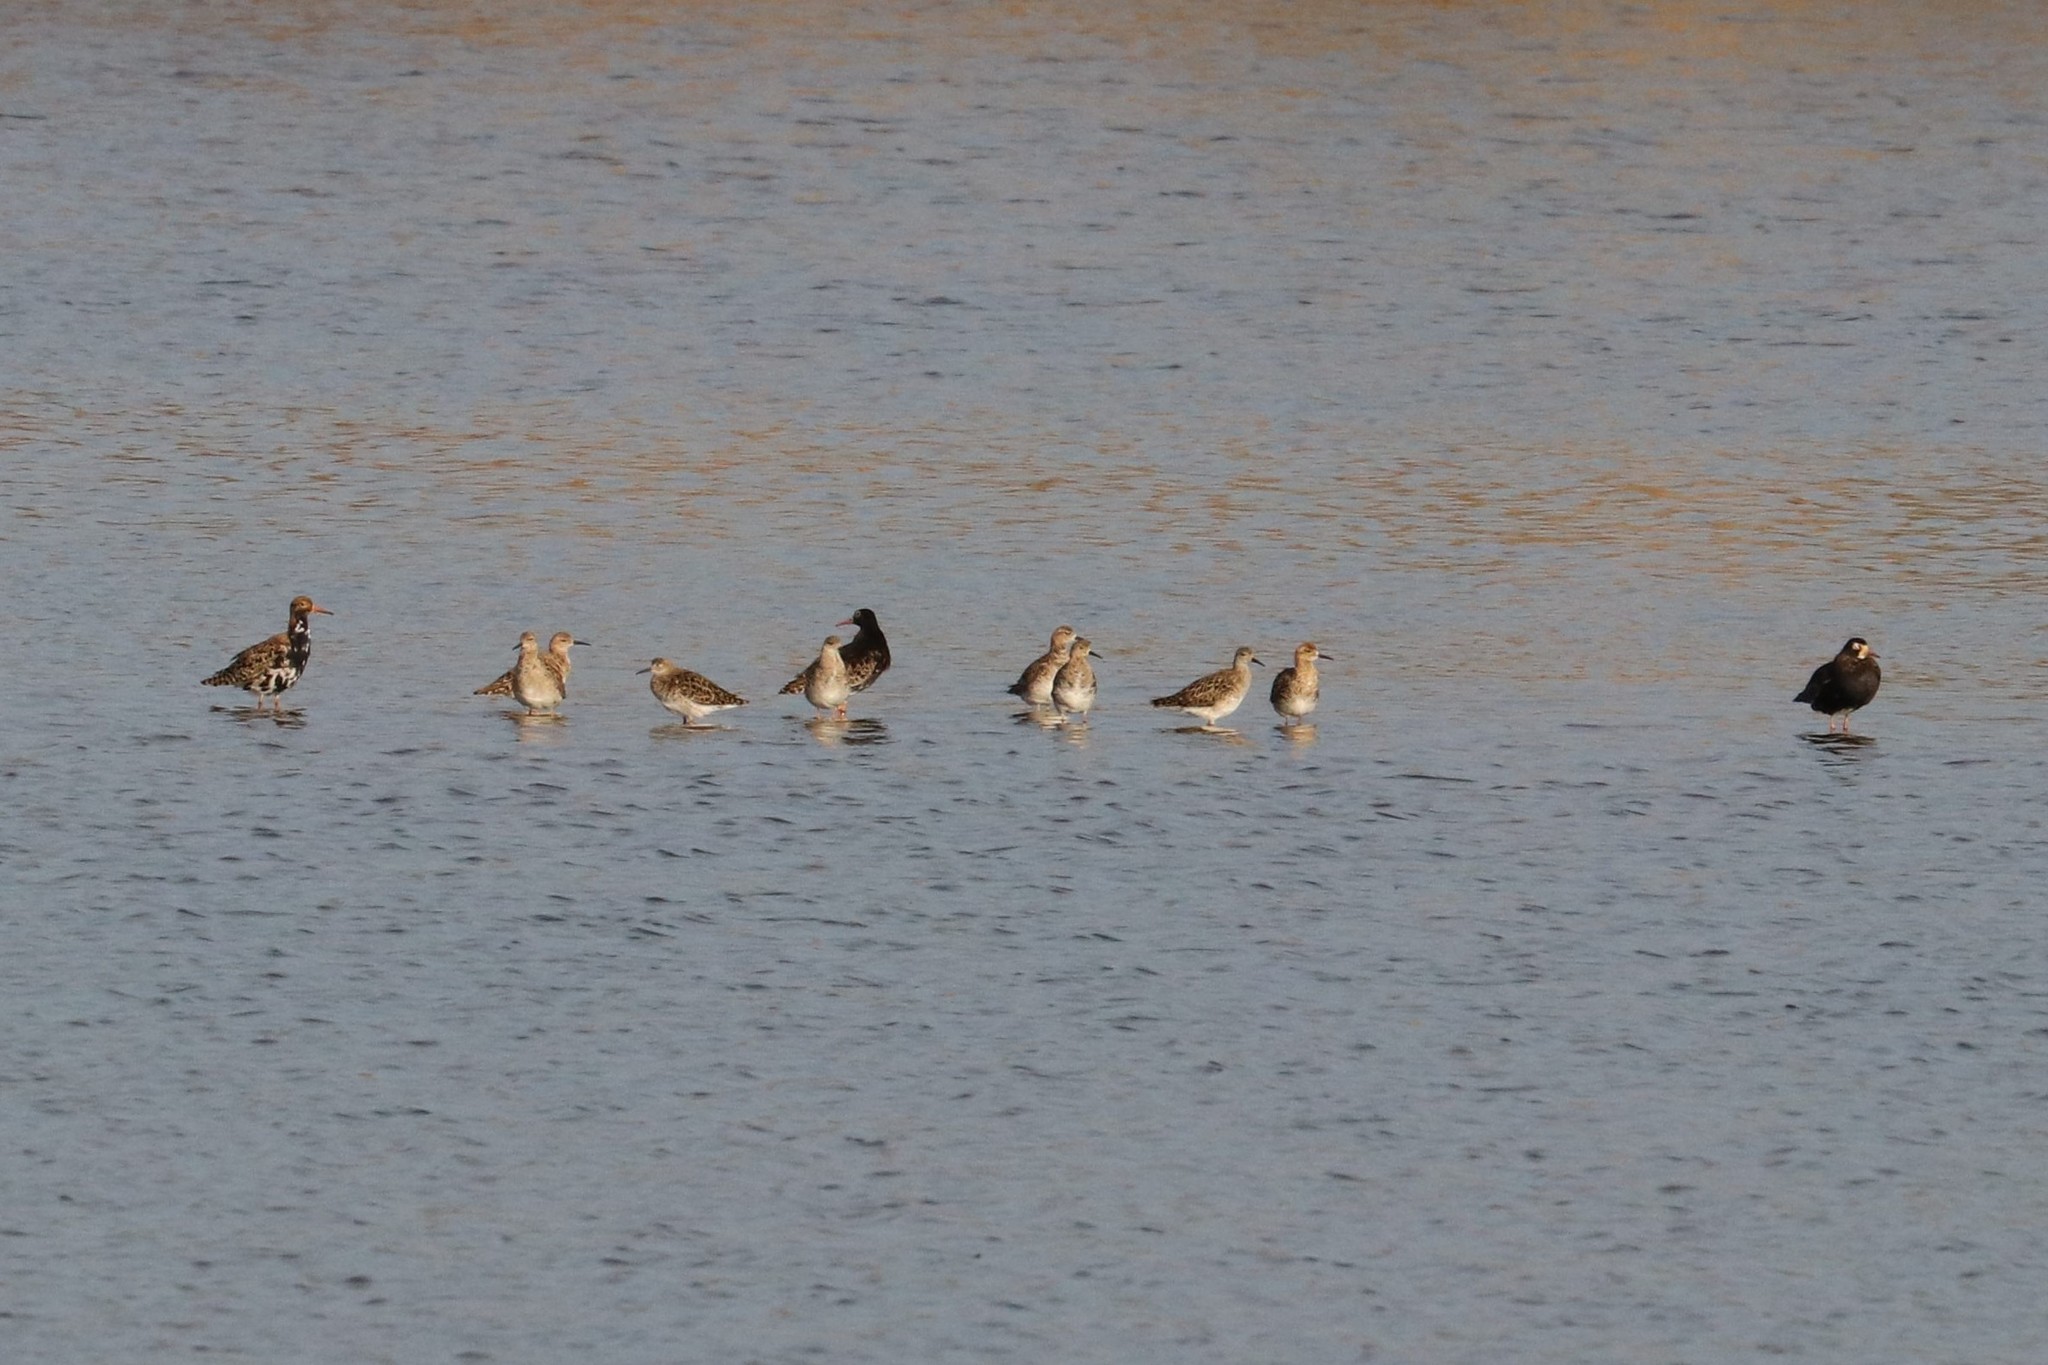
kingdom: Animalia
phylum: Chordata
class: Aves
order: Charadriiformes
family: Scolopacidae
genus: Calidris
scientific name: Calidris pugnax
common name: Ruff
